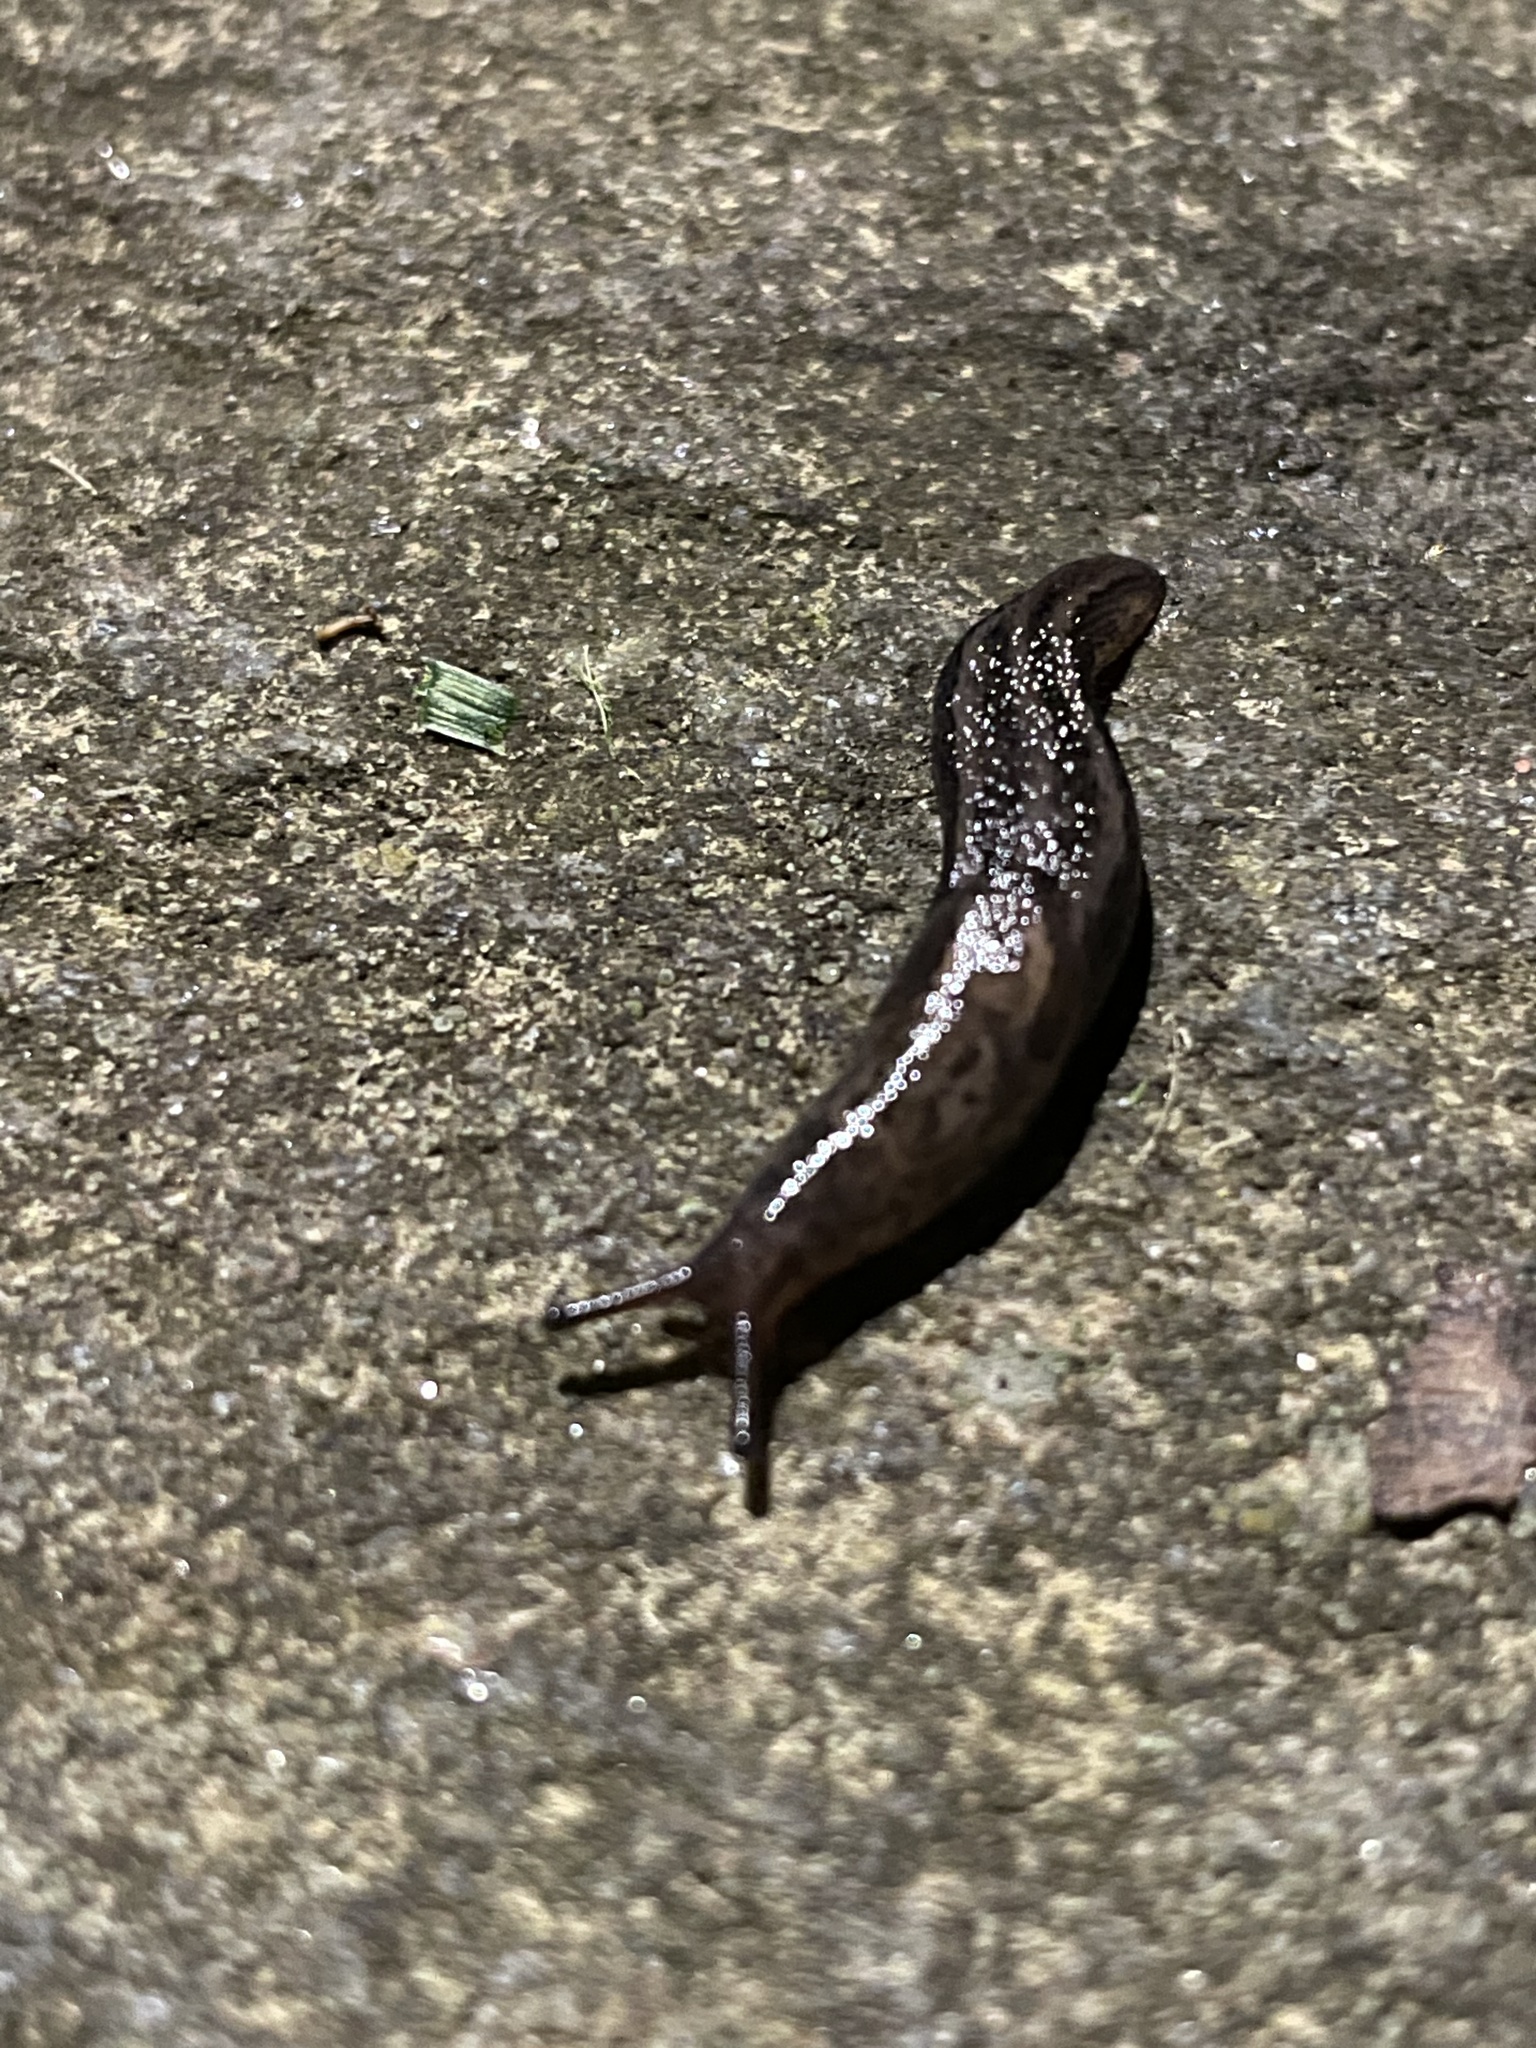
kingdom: Animalia
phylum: Mollusca
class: Gastropoda
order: Stylommatophora
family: Limacidae
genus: Limax
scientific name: Limax maximus
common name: Great grey slug
